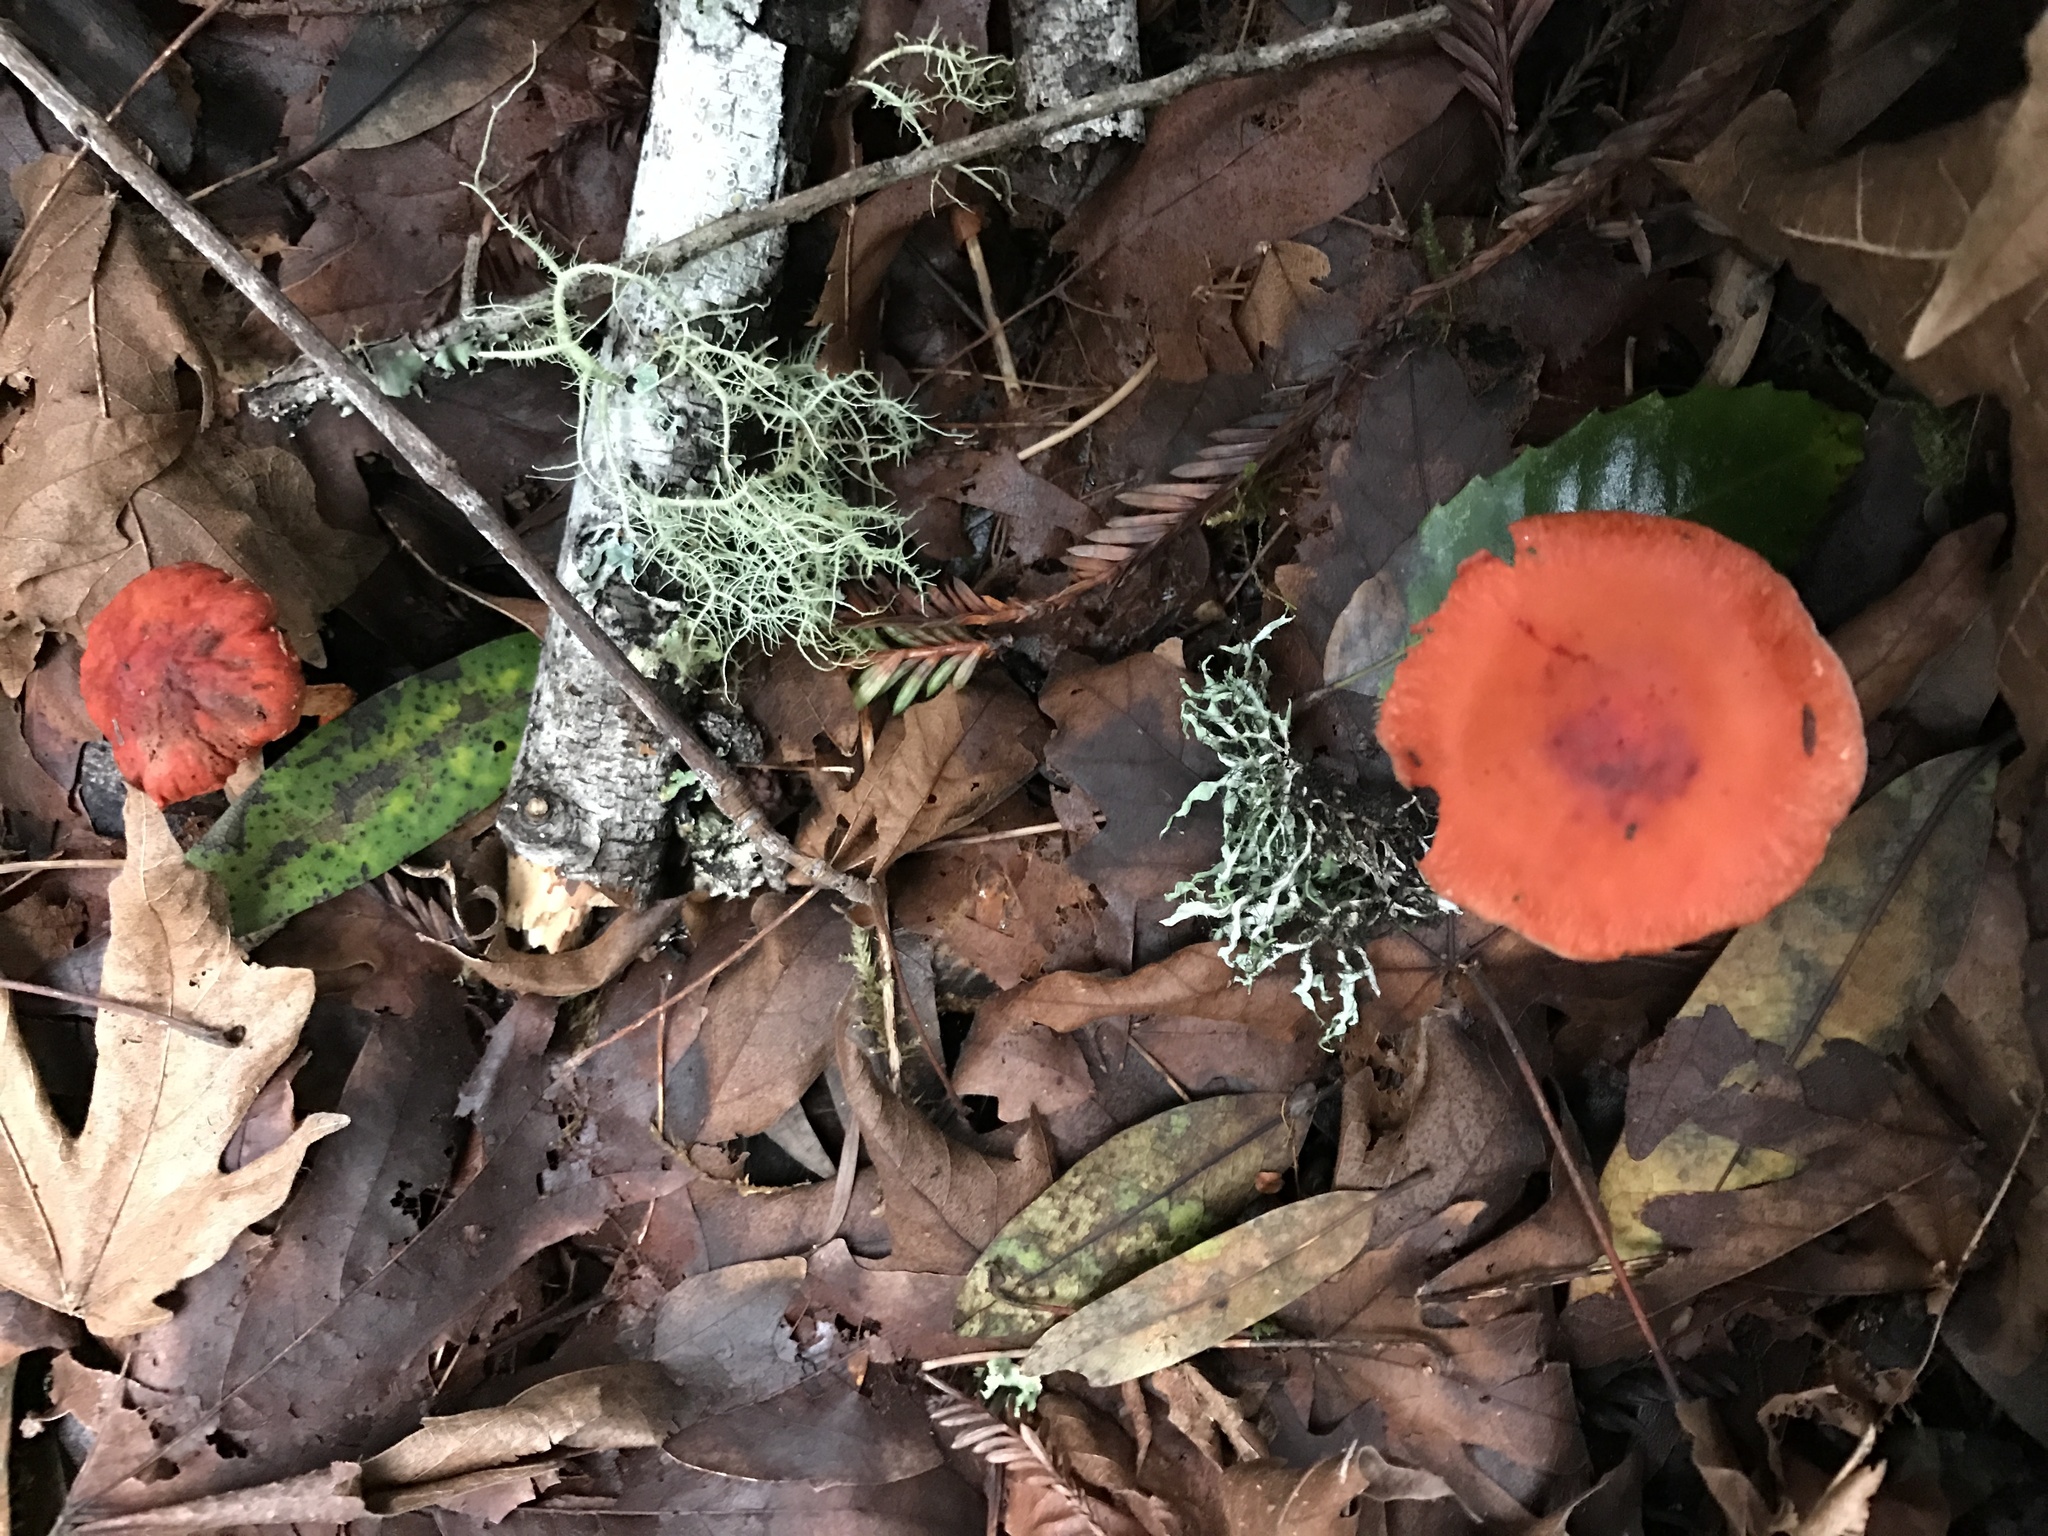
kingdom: Fungi
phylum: Basidiomycota
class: Agaricomycetes
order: Agaricales
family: Strophariaceae
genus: Leratiomyces
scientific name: Leratiomyces ceres
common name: Redlead roundhead
